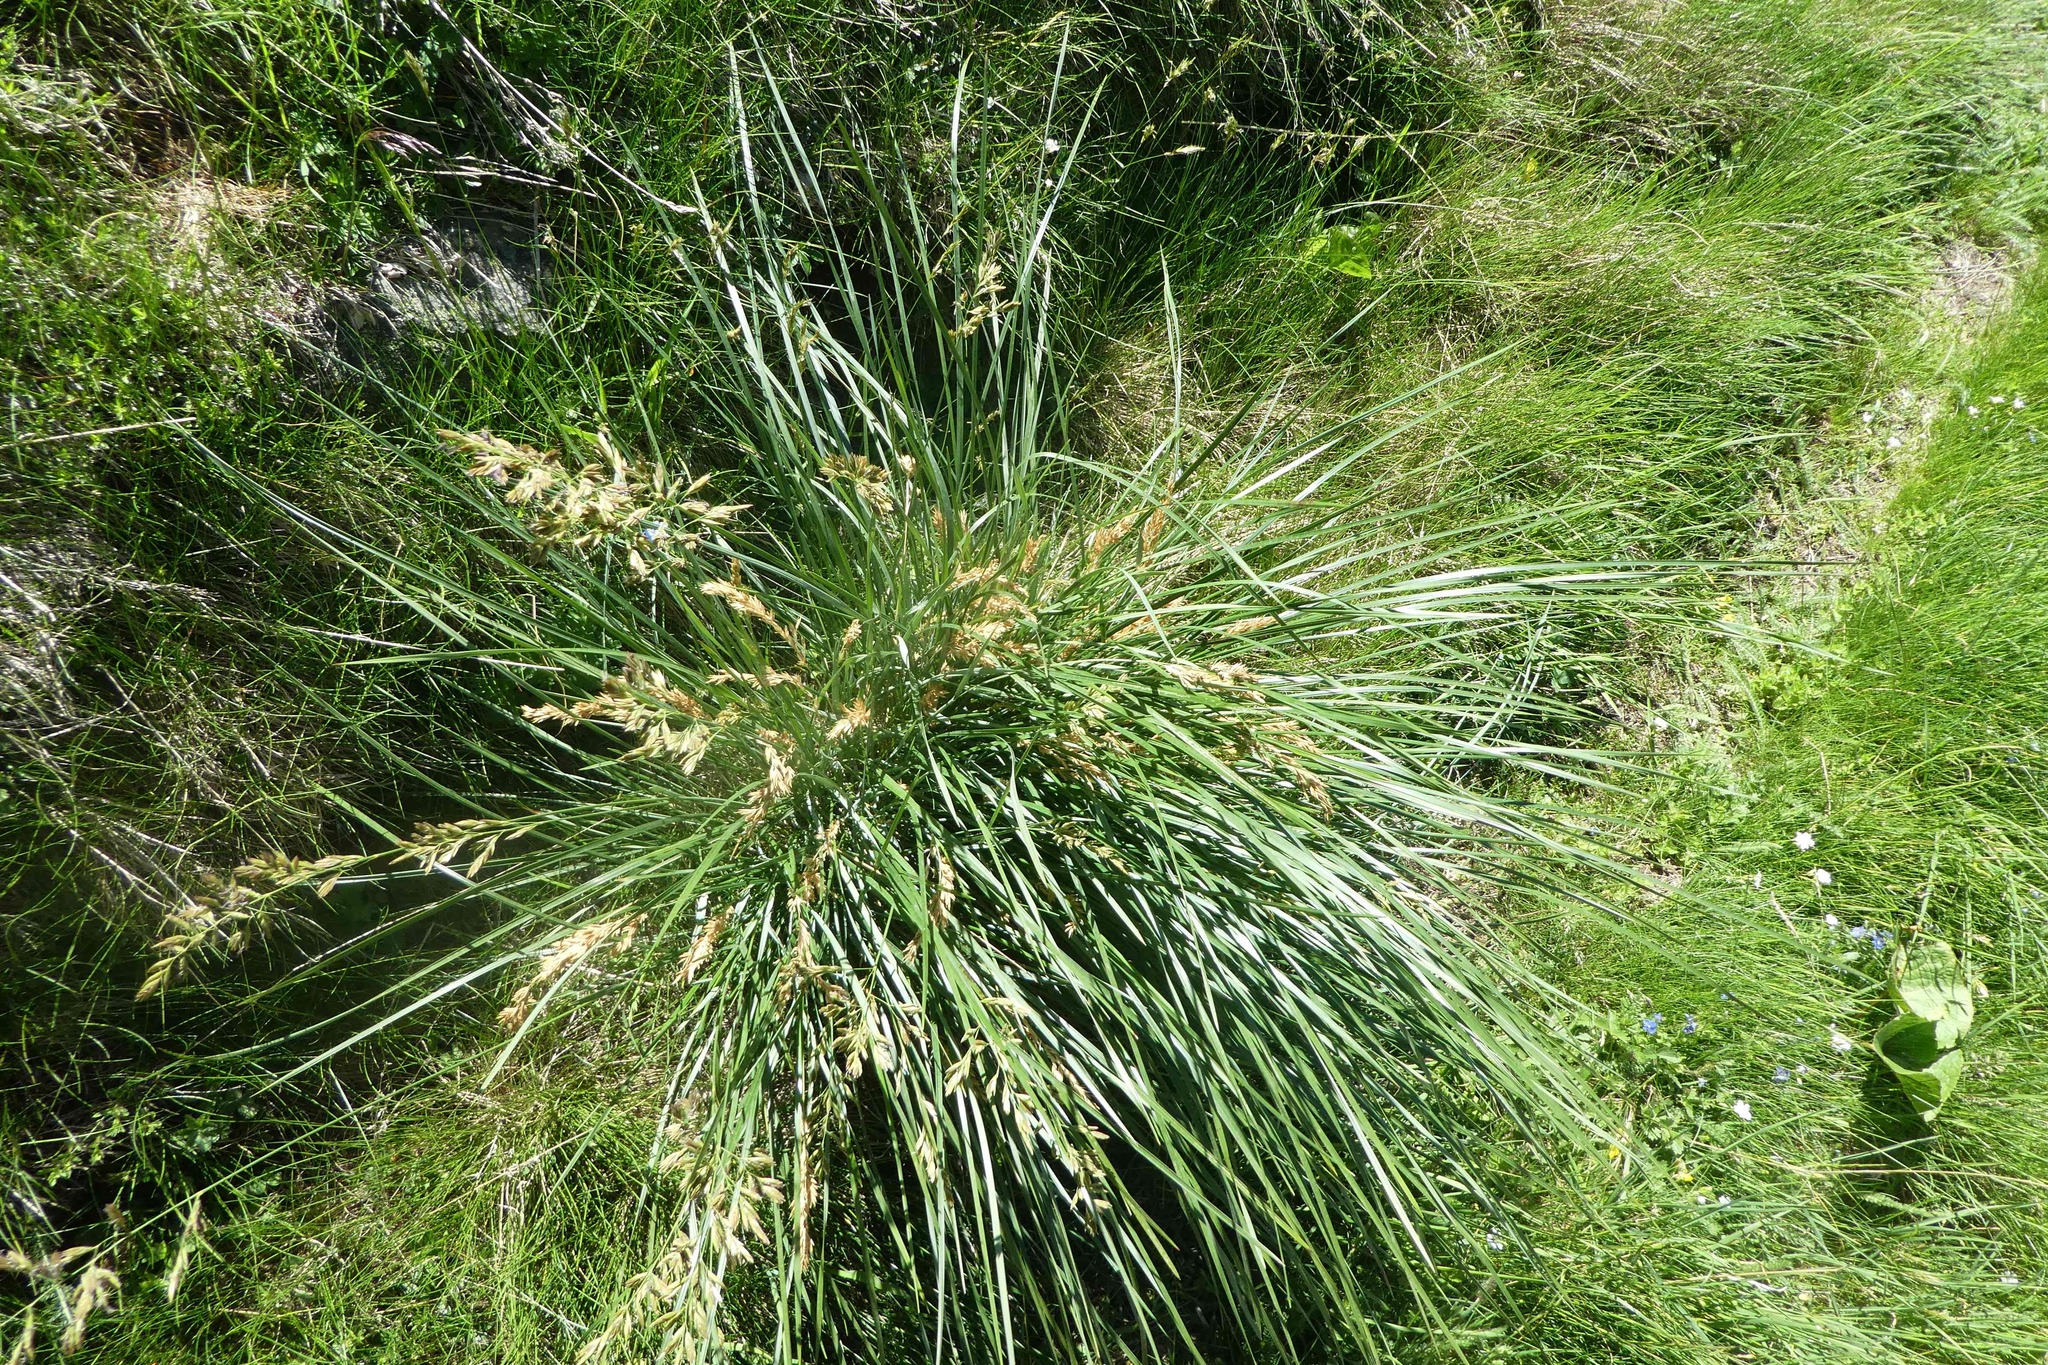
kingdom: Plantae
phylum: Tracheophyta
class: Liliopsida
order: Poales
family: Poaceae
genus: Patzkea
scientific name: Patzkea paniculata
